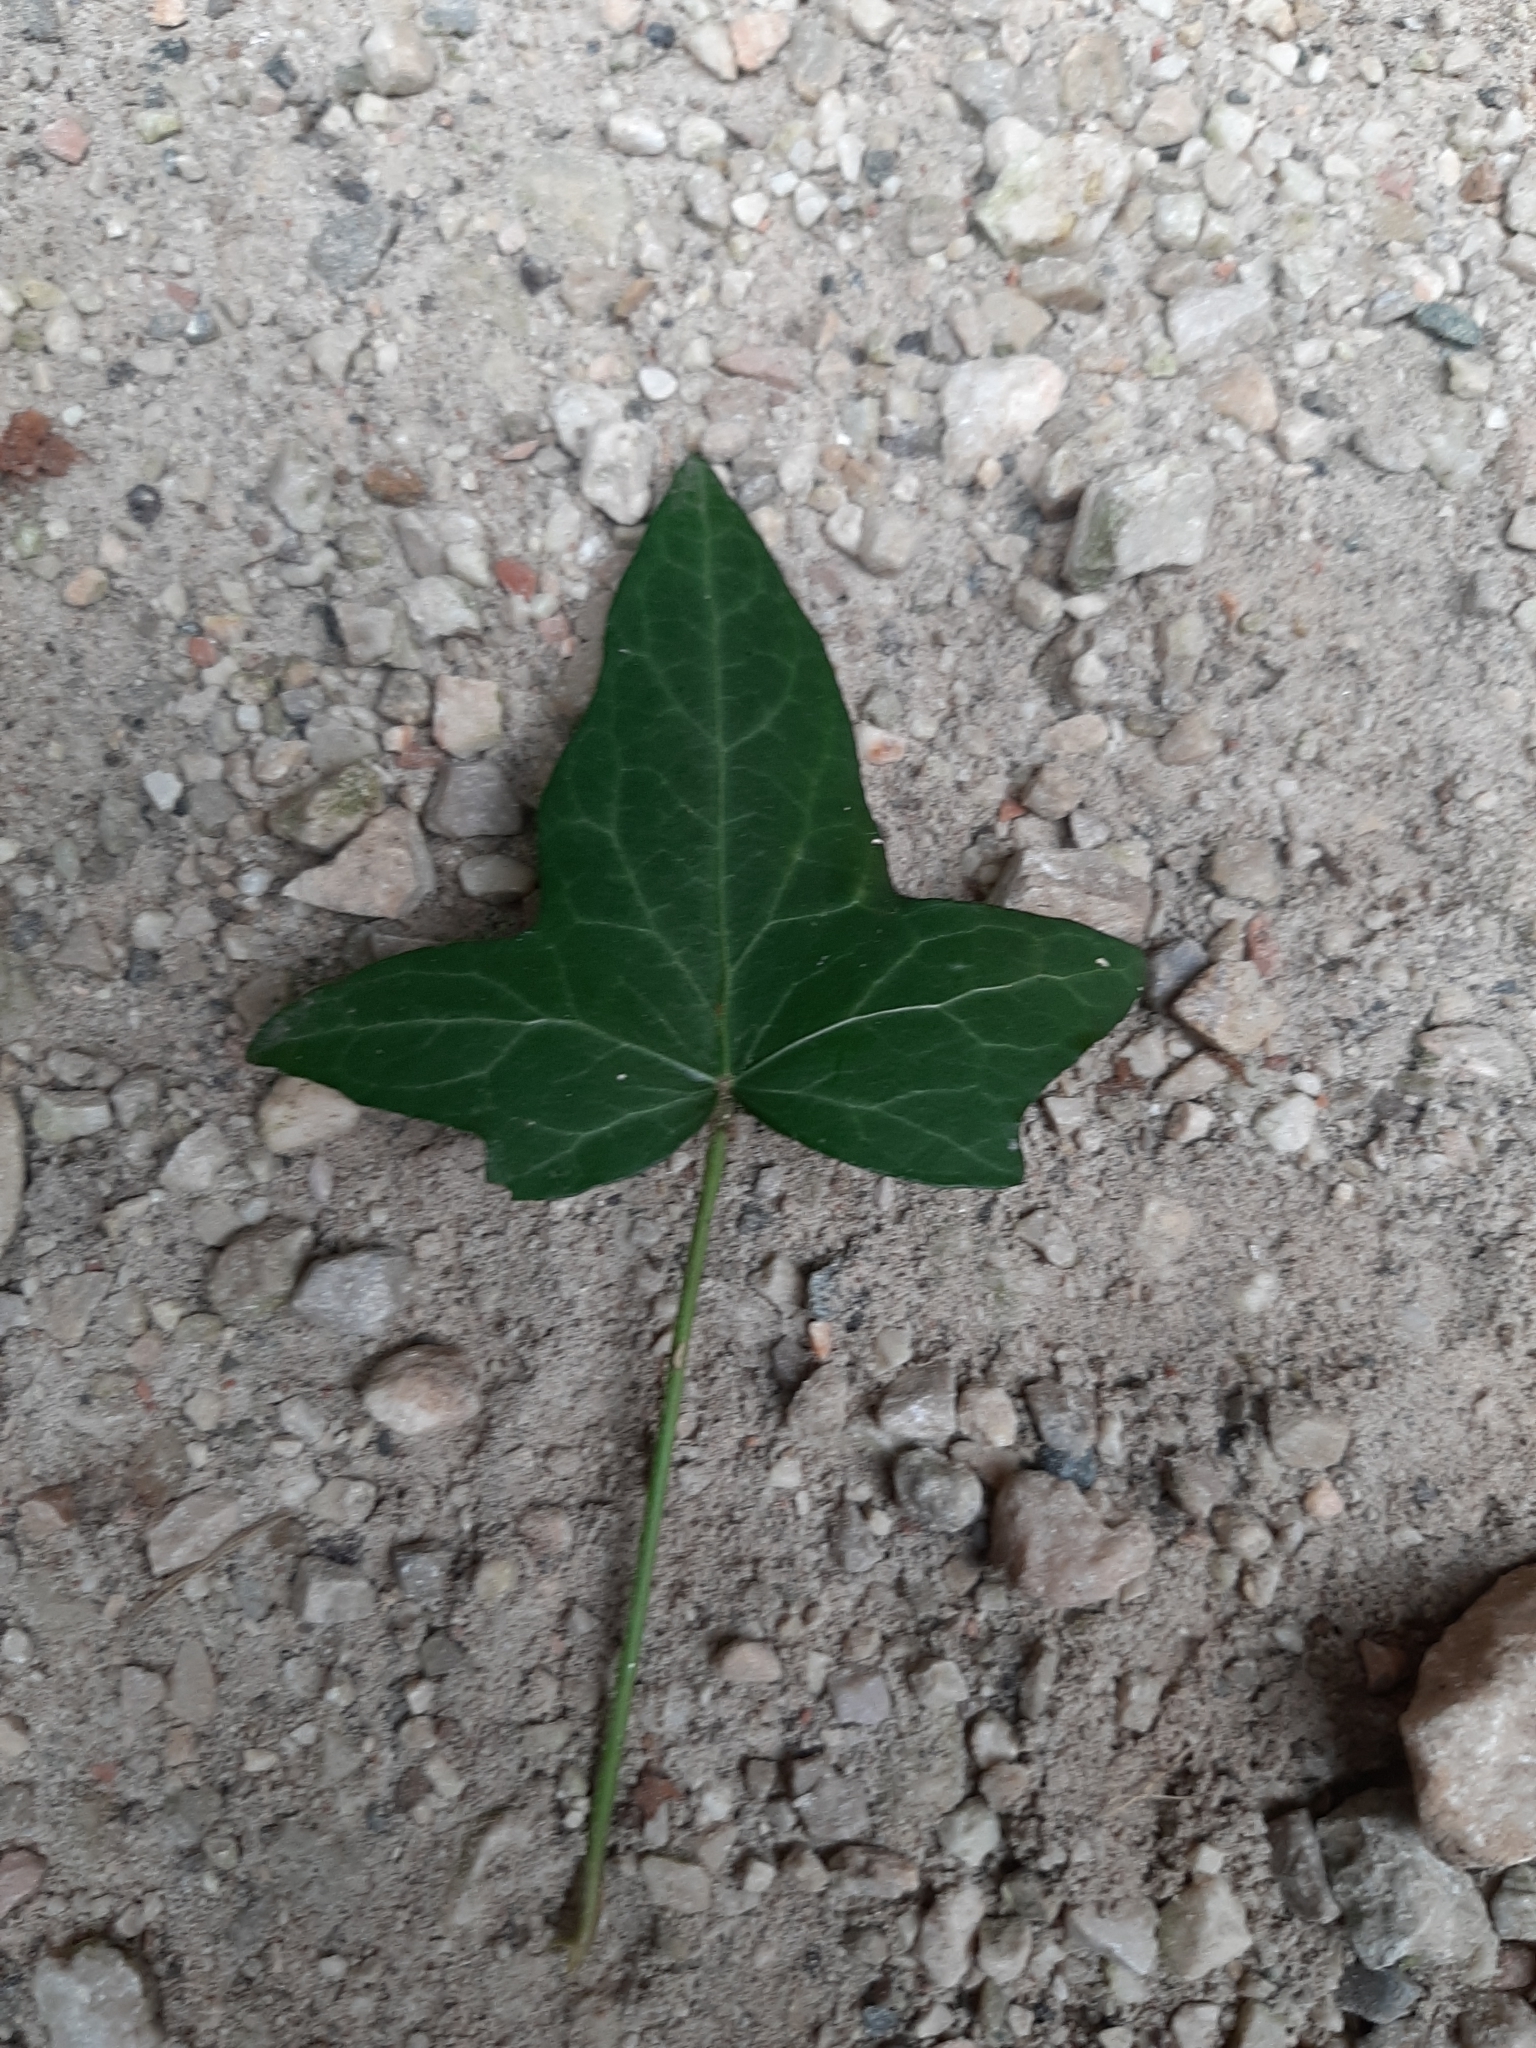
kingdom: Plantae
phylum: Tracheophyta
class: Magnoliopsida
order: Apiales
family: Araliaceae
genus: Hedera
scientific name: Hedera helix
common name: Ivy
